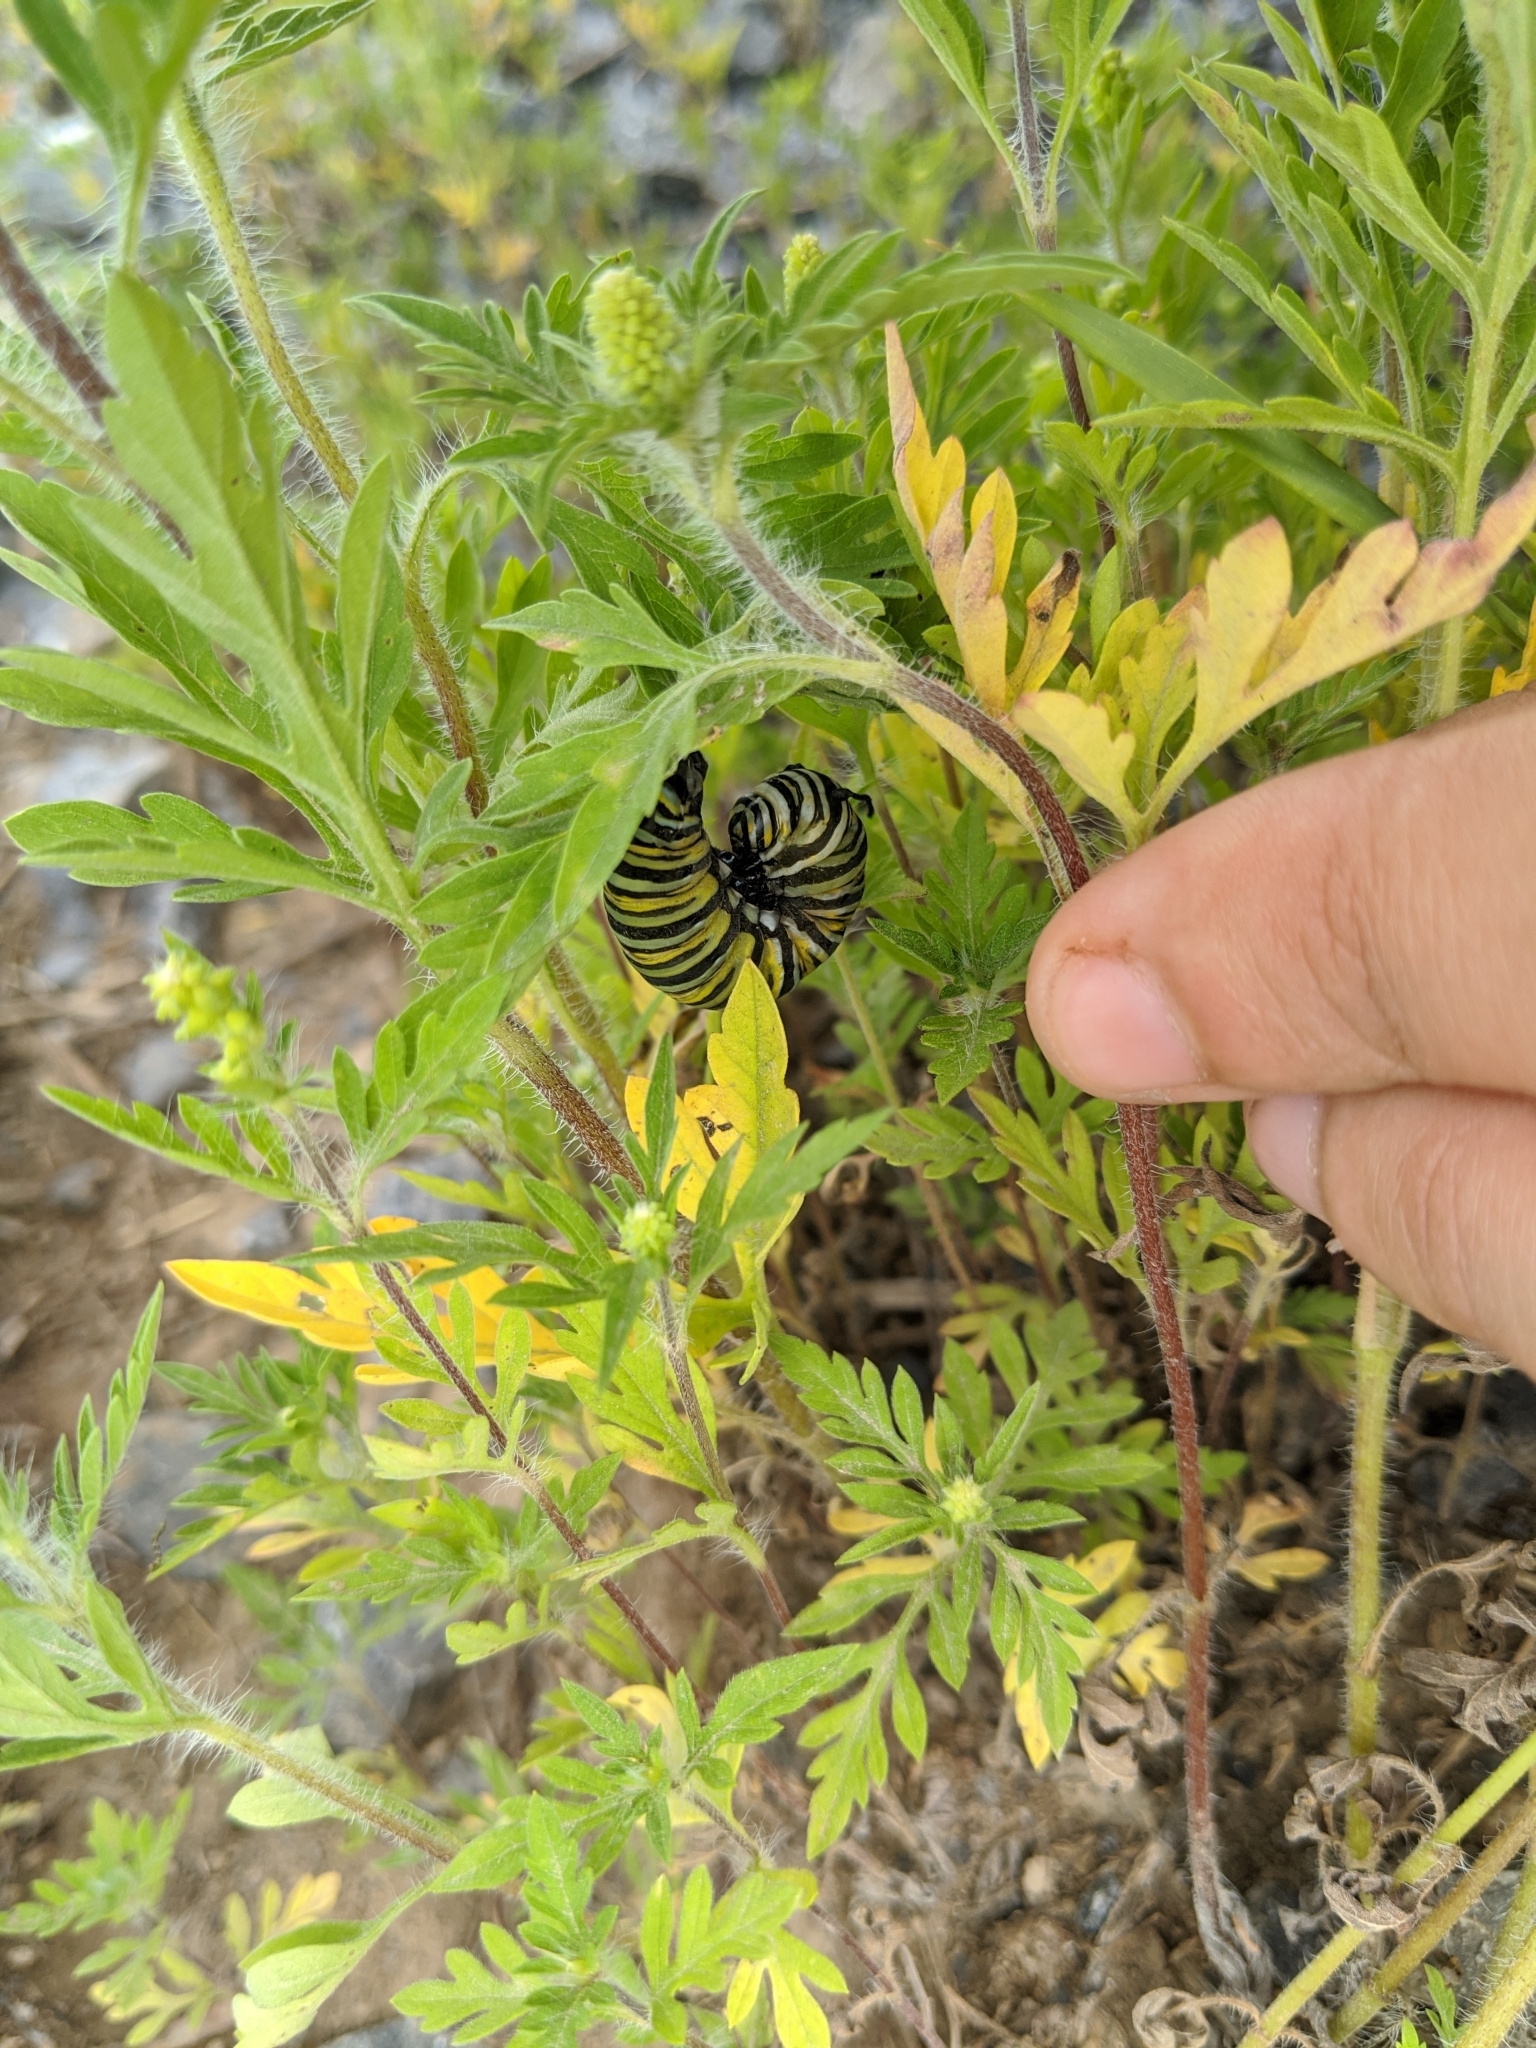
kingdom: Animalia
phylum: Arthropoda
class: Insecta
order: Lepidoptera
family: Nymphalidae
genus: Danaus
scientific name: Danaus plexippus
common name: Monarch
